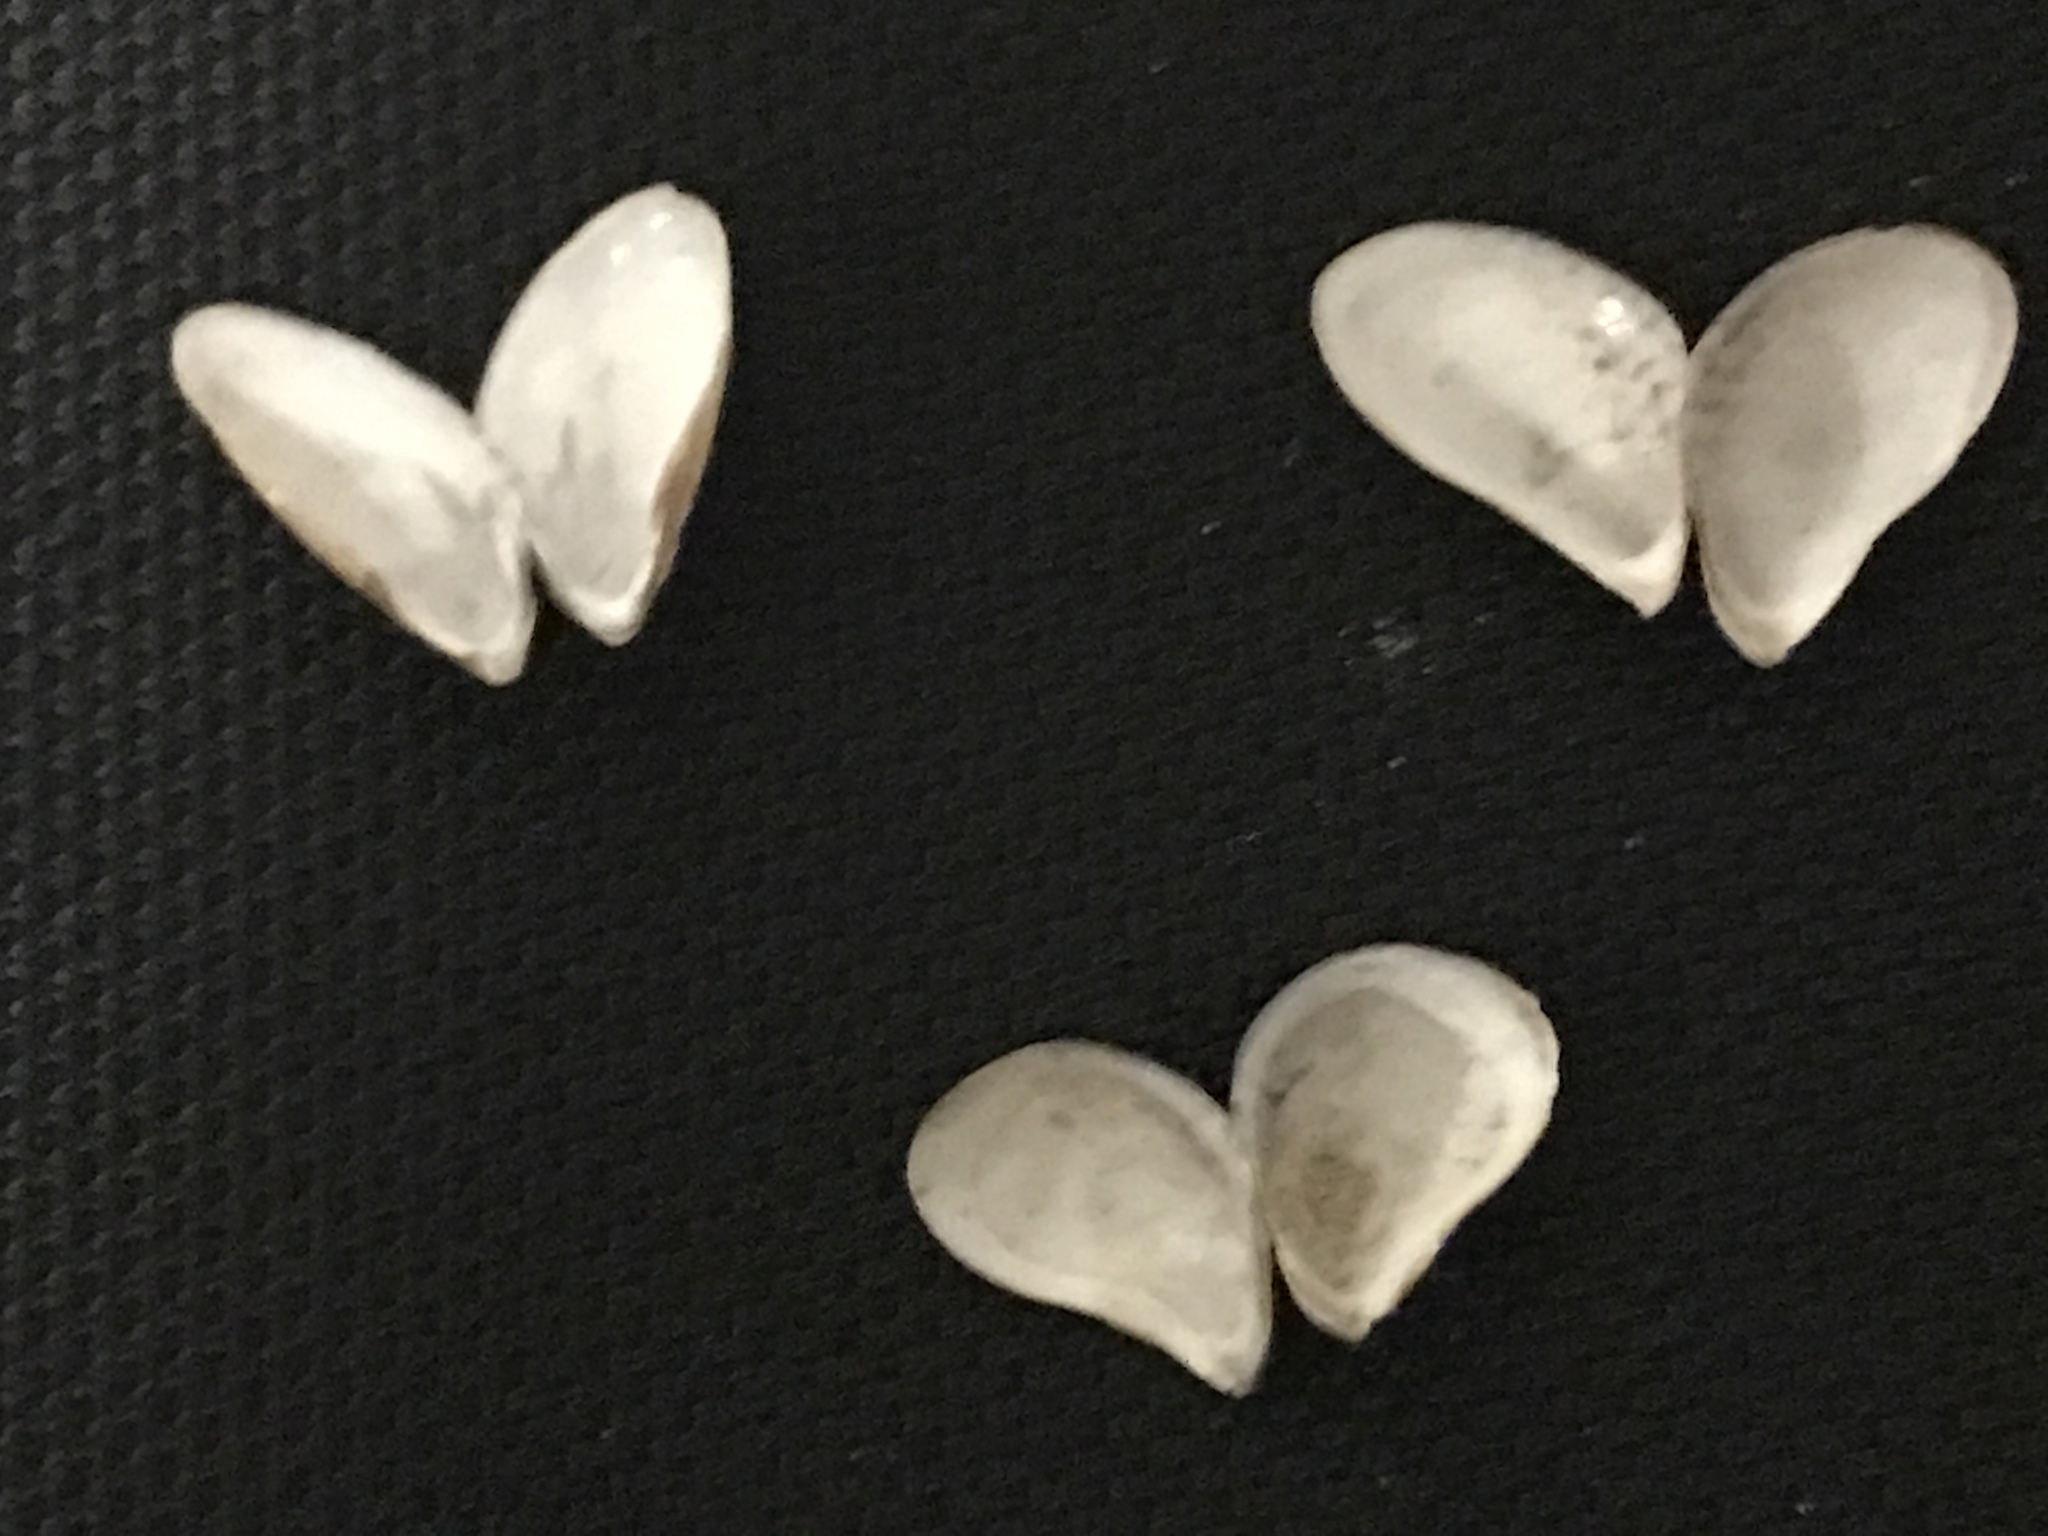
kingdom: Animalia
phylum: Mollusca
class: Bivalvia
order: Myida
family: Dreissenidae
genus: Dreissena
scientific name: Dreissena bugensis
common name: Quagga mussel
